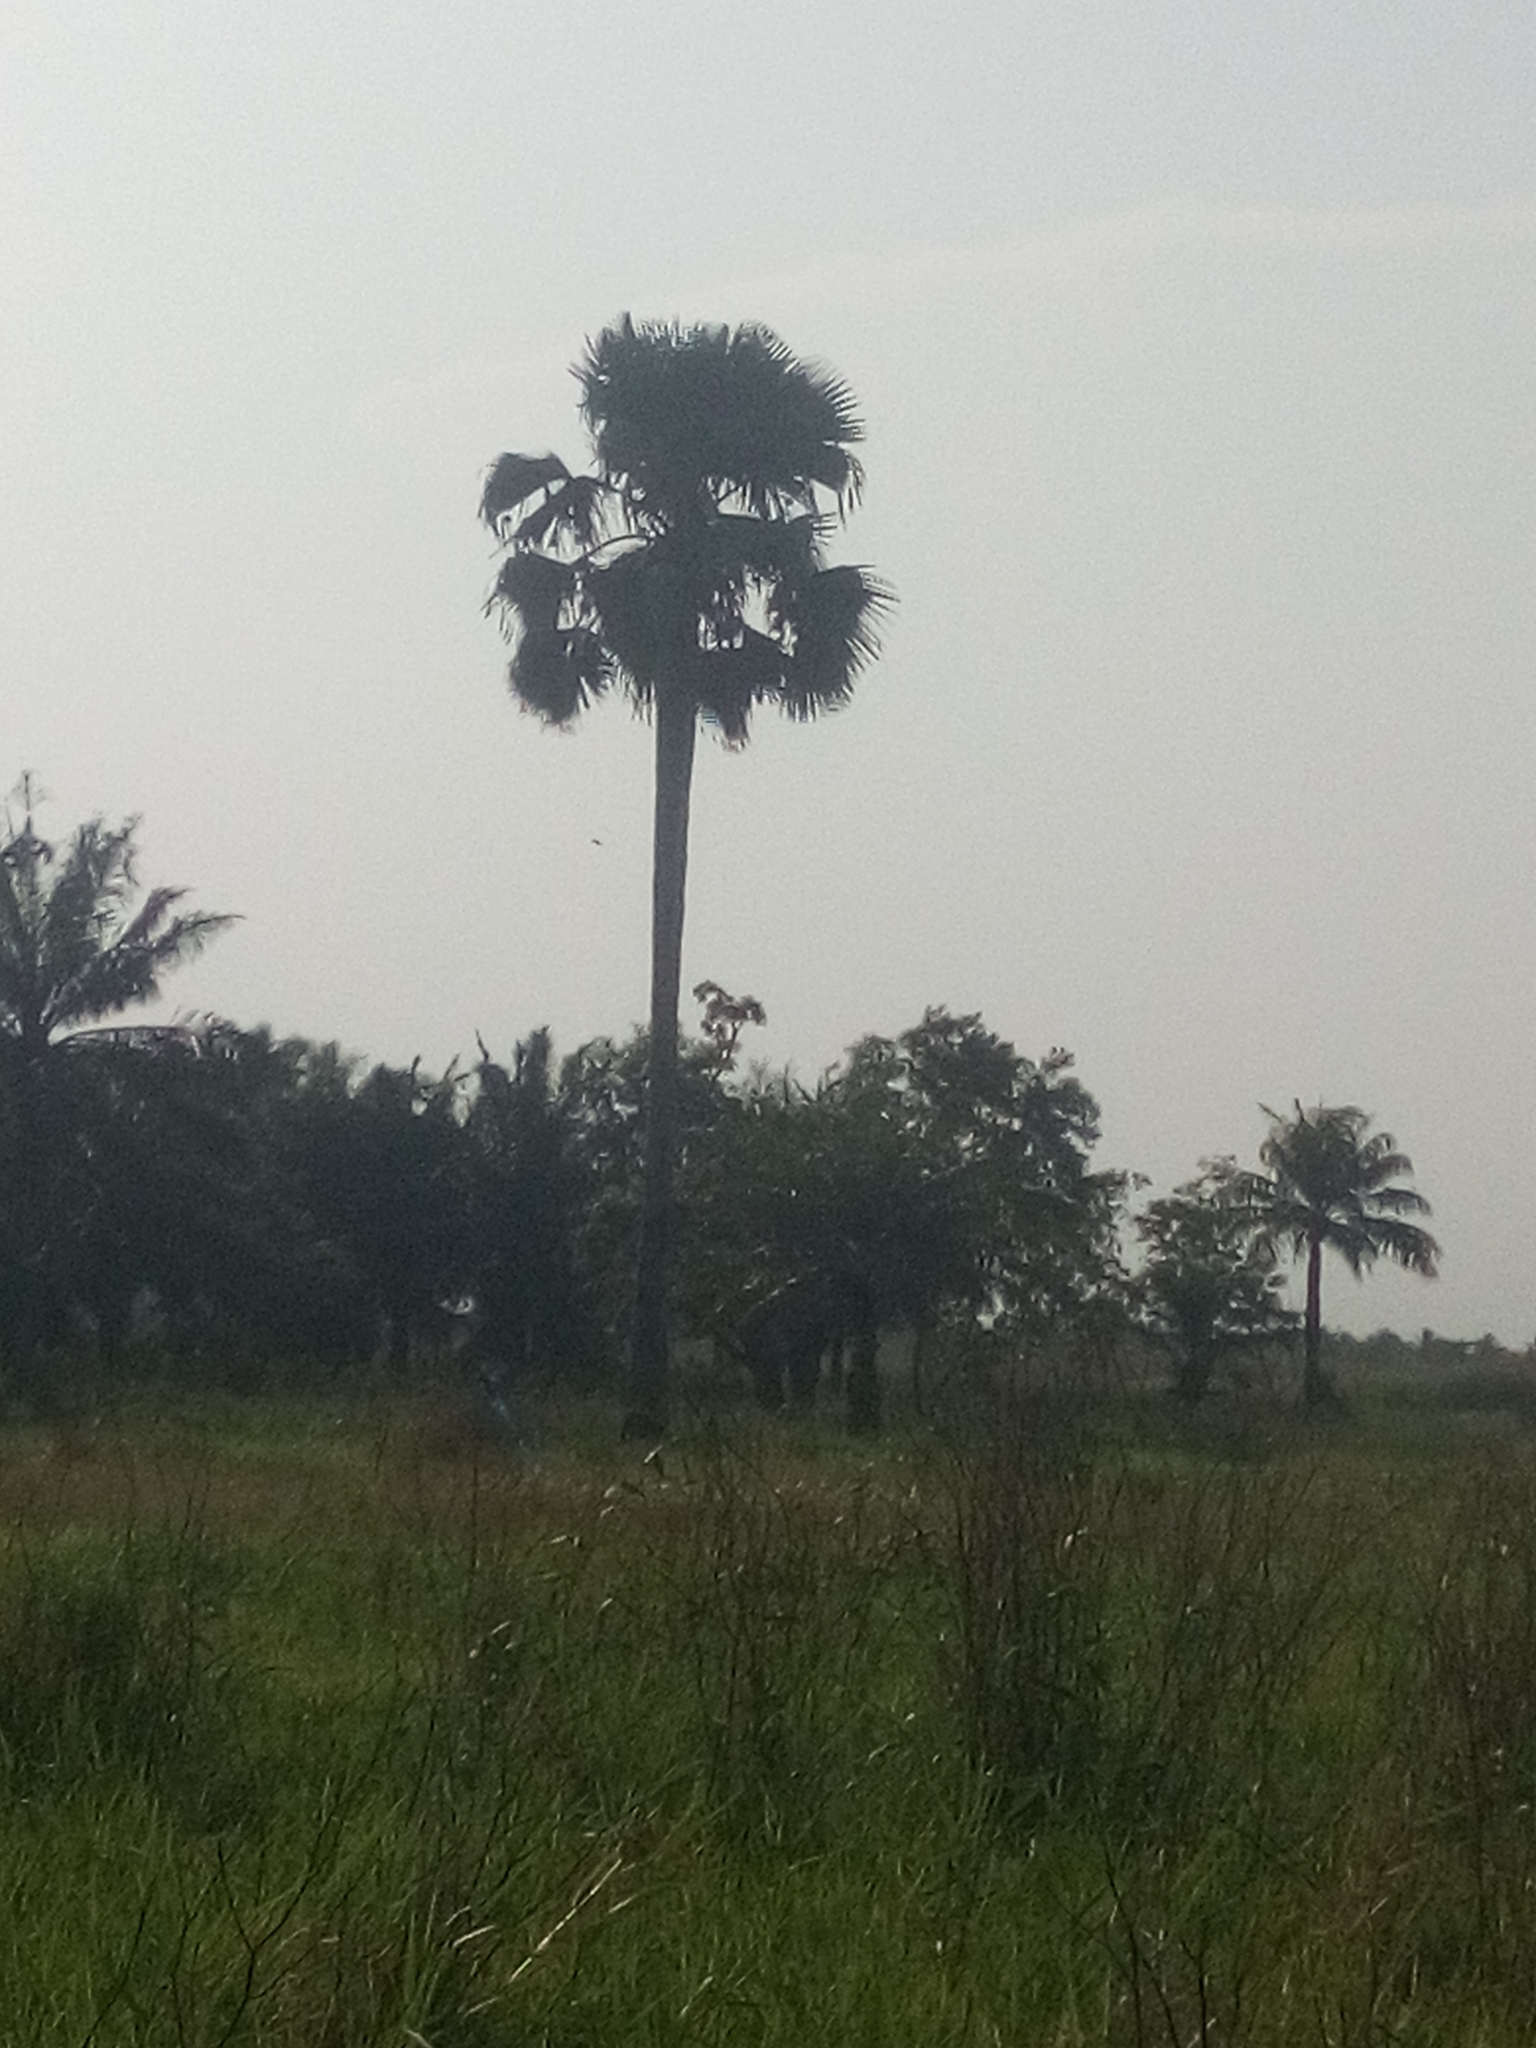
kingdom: Plantae
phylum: Tracheophyta
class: Liliopsida
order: Arecales
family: Arecaceae
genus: Borassus
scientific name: Borassus aethiopum
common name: Elephant palm
